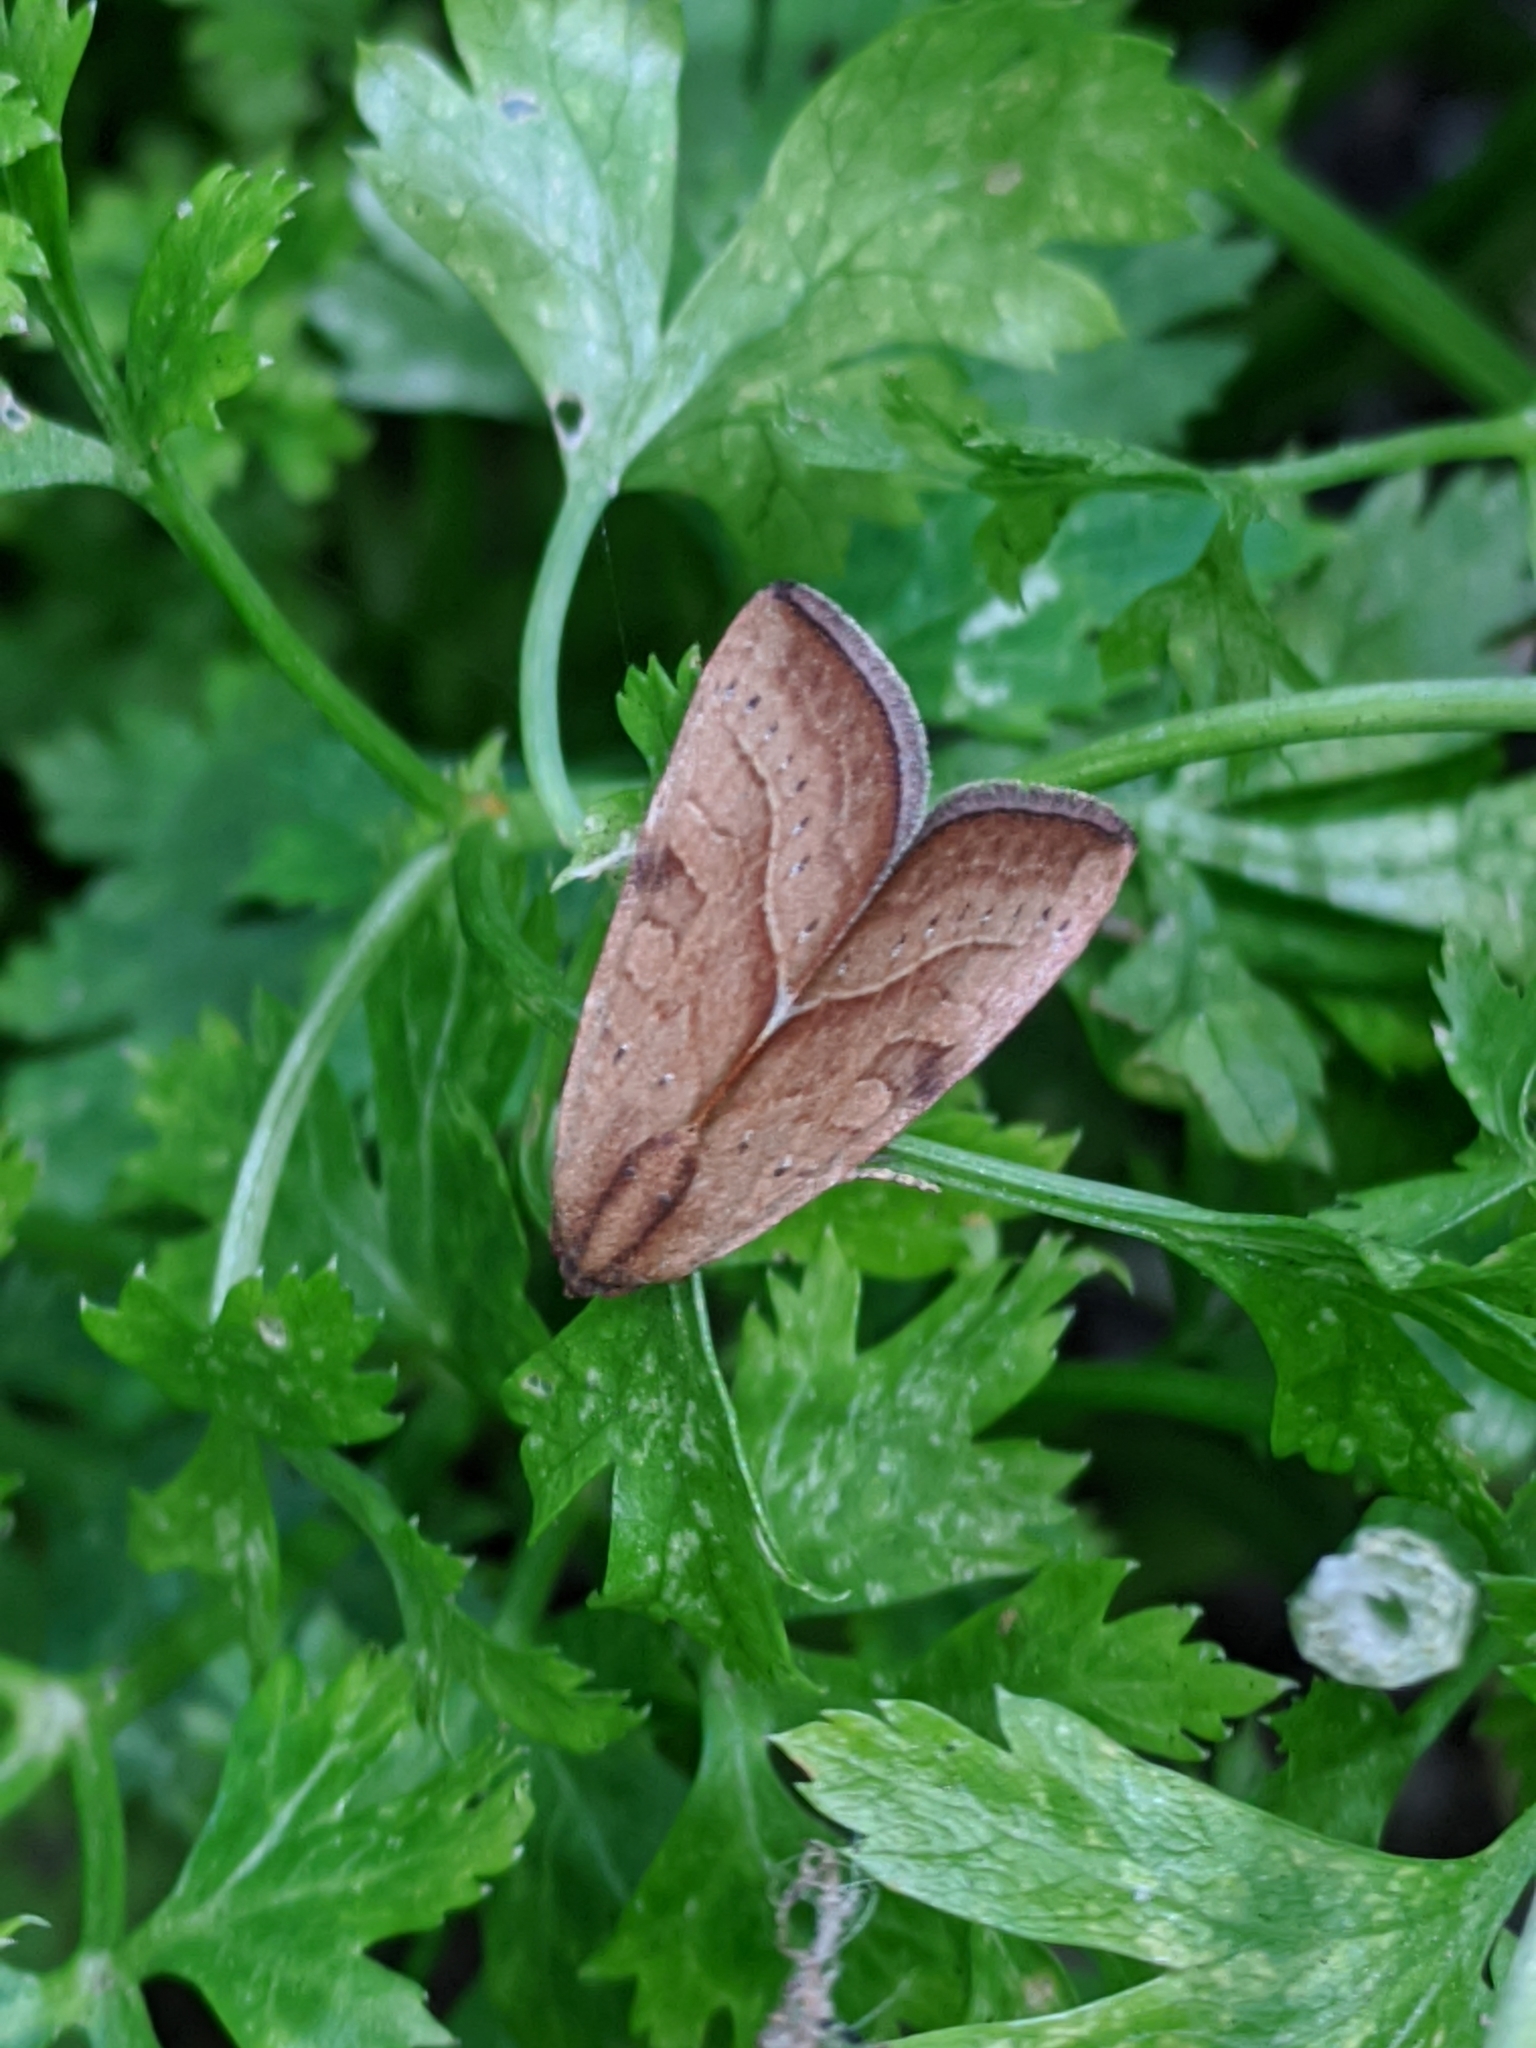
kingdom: Animalia
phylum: Arthropoda
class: Insecta
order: Lepidoptera
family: Noctuidae
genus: Galgula
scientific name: Galgula partita
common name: Wedgeling
